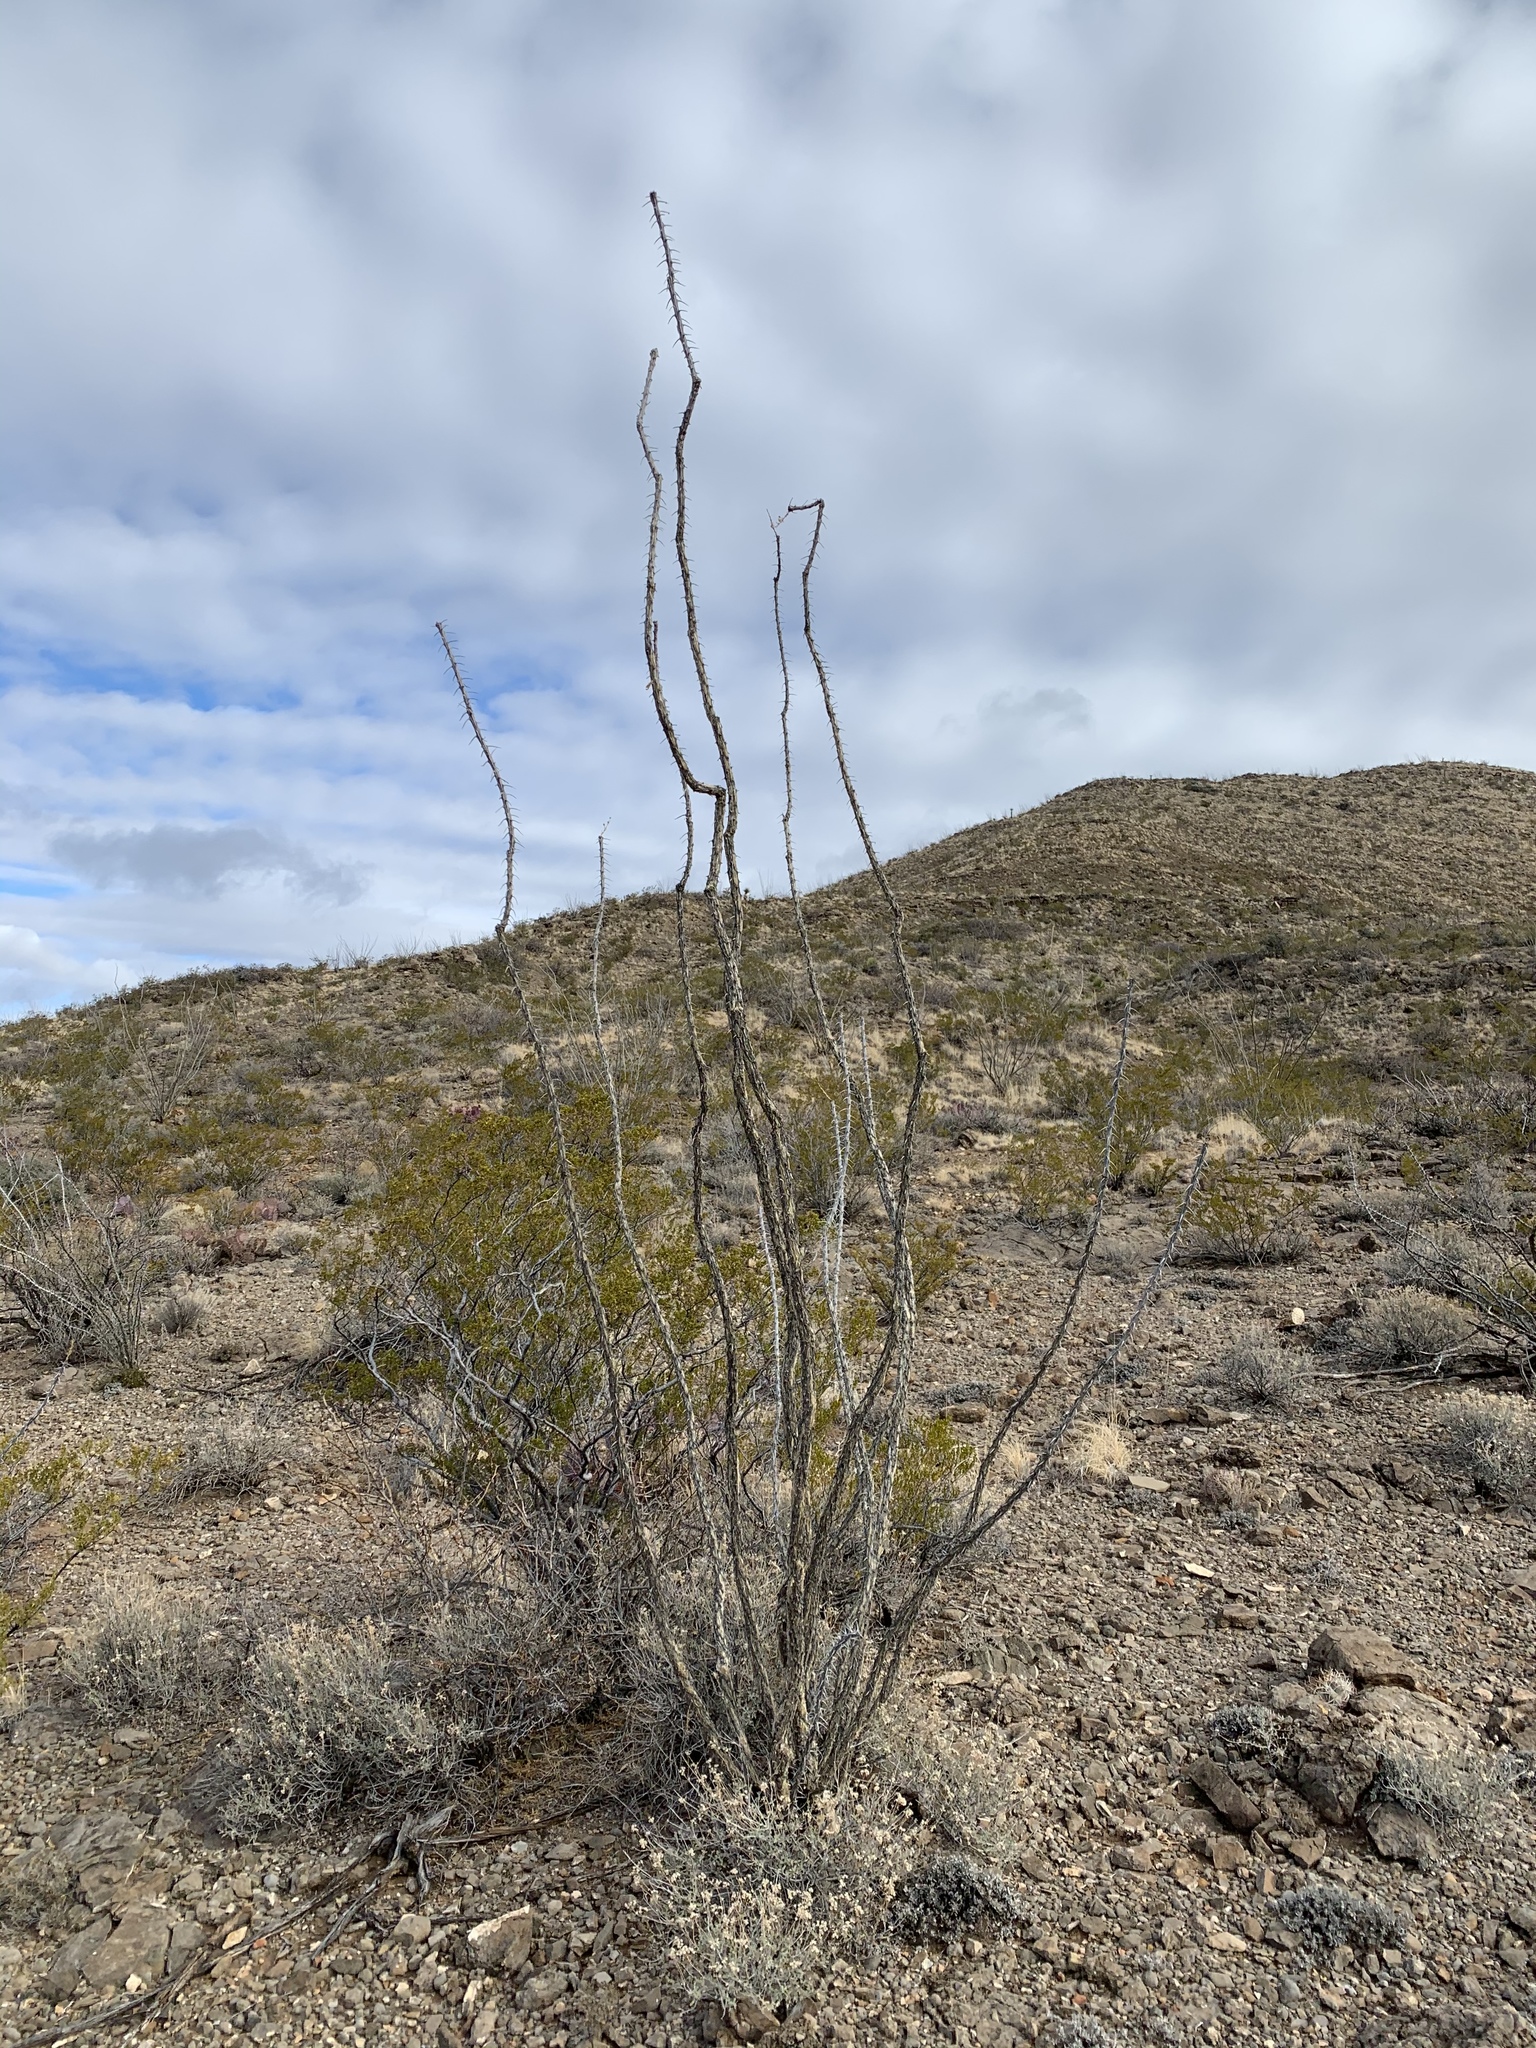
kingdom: Plantae
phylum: Tracheophyta
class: Magnoliopsida
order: Ericales
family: Fouquieriaceae
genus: Fouquieria
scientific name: Fouquieria splendens
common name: Vine-cactus
